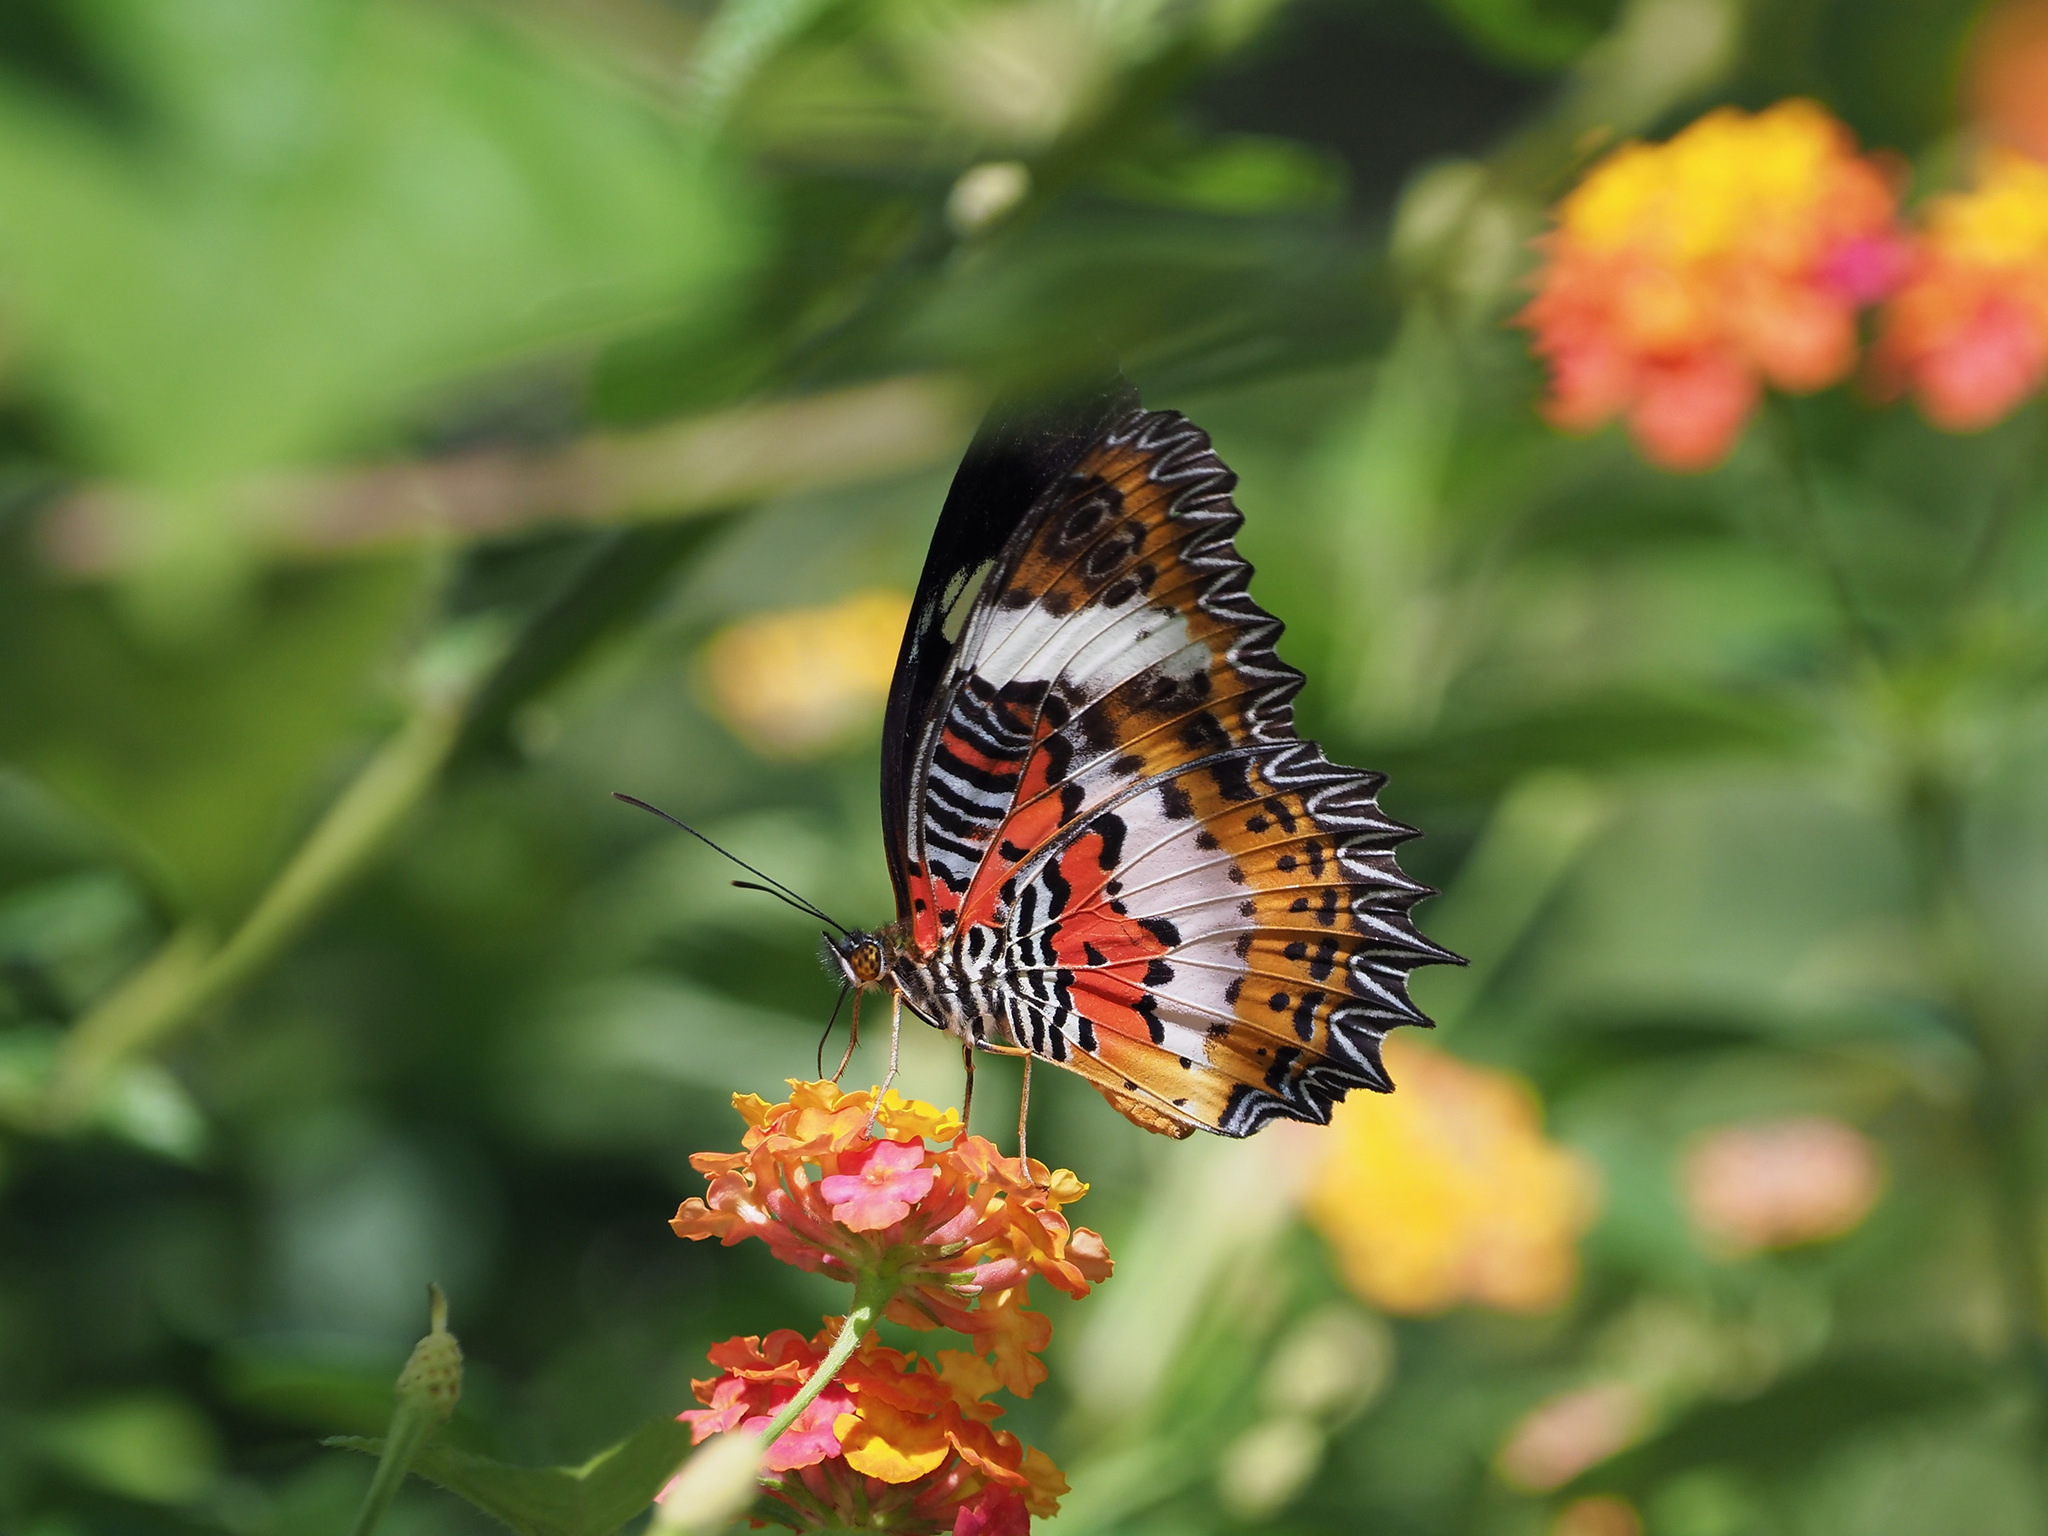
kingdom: Animalia
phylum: Arthropoda
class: Insecta
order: Lepidoptera
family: Nymphalidae
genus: Cethosia
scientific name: Cethosia hypsea
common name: Malayan lacewing butterfly
